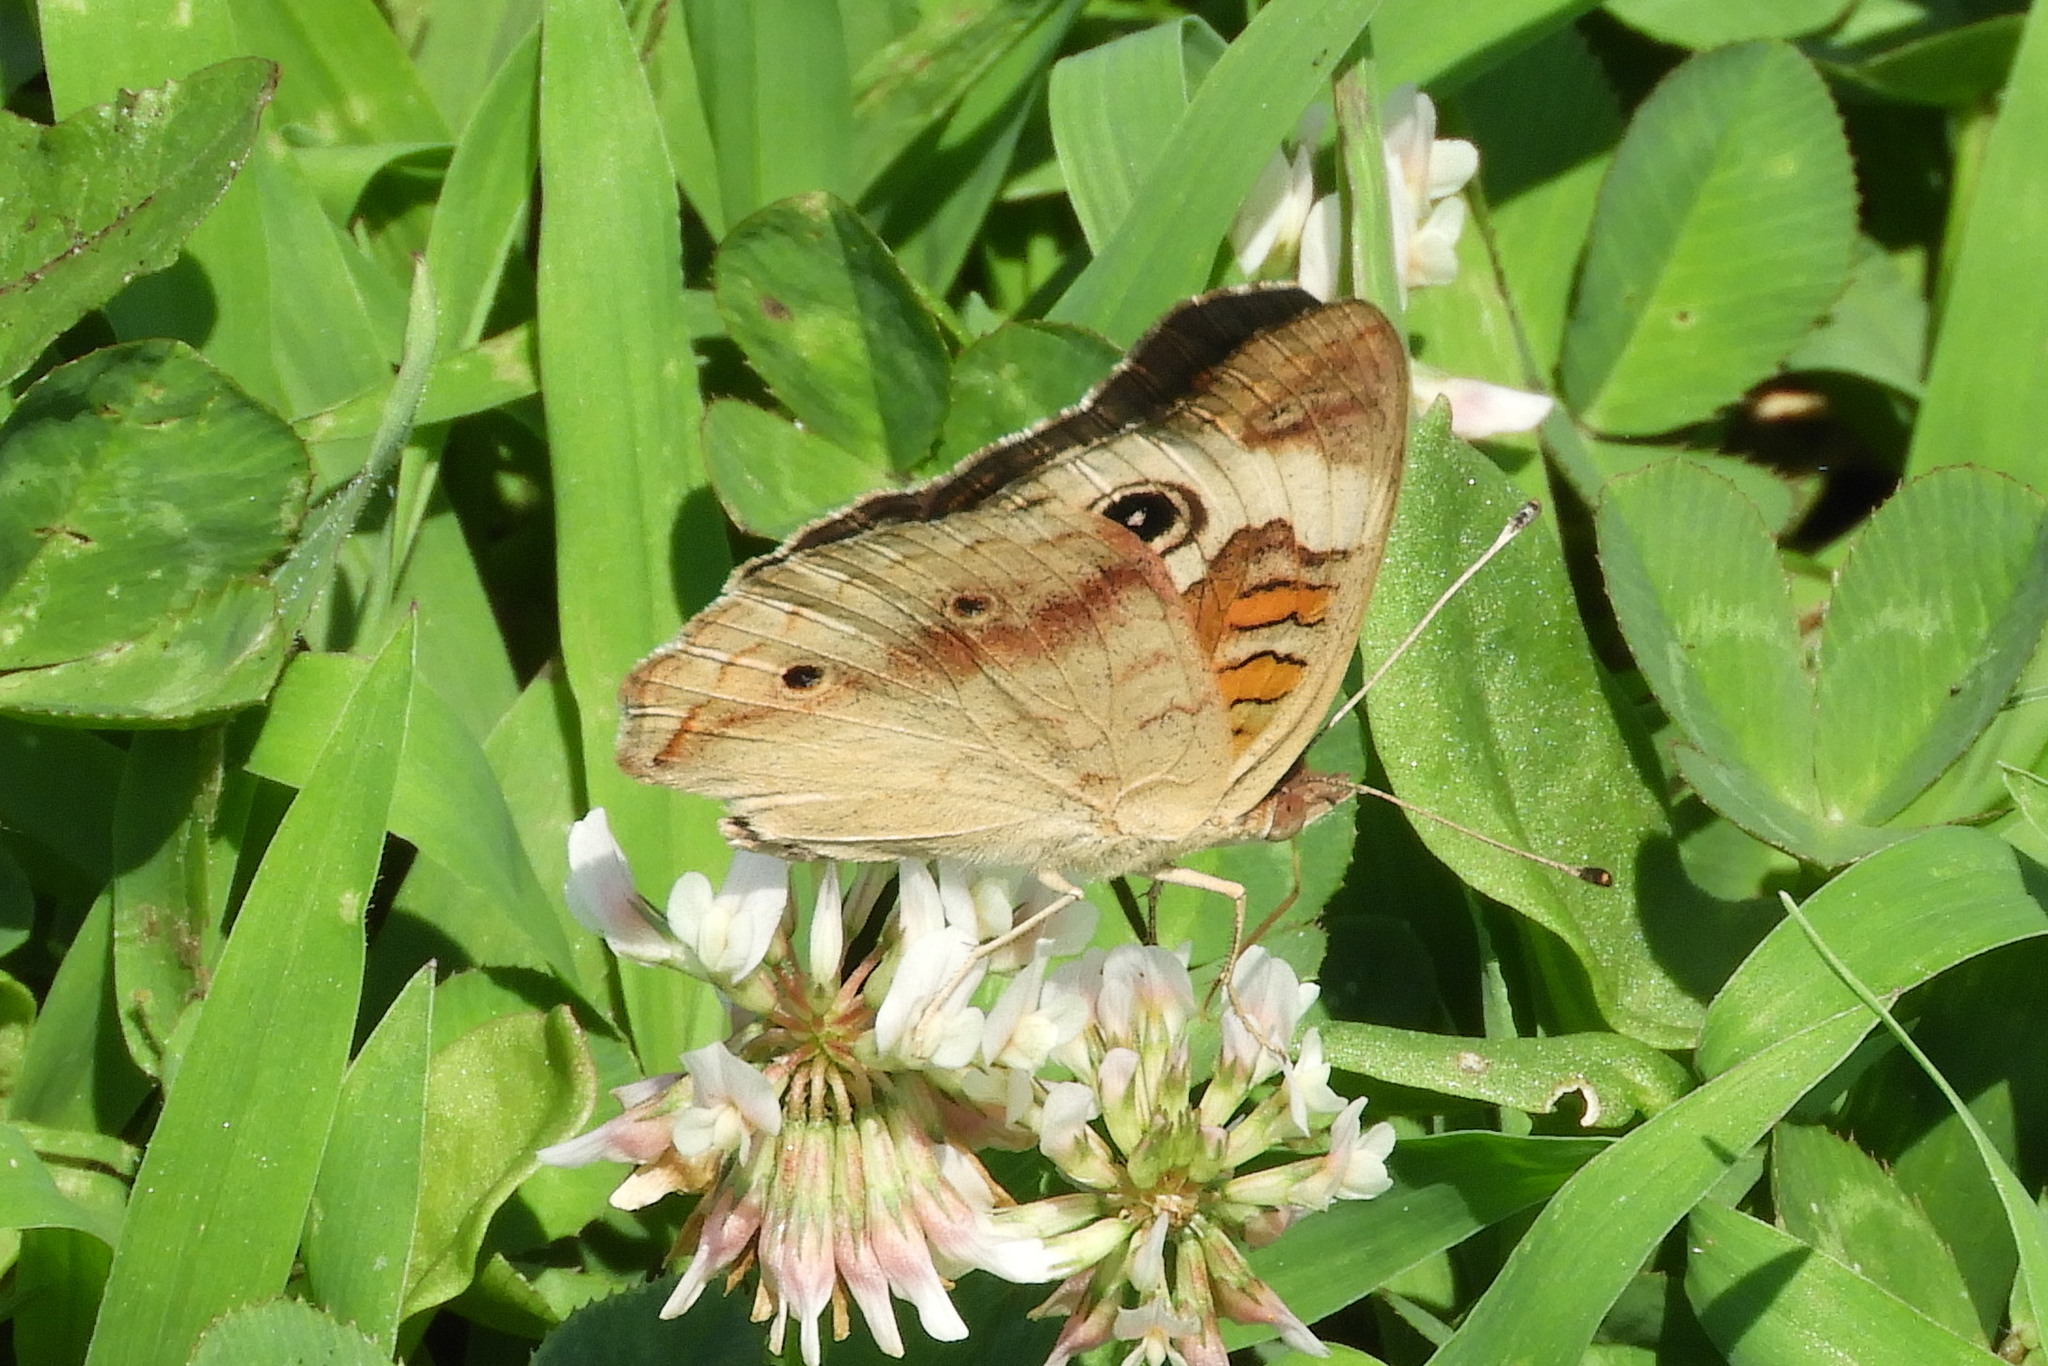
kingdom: Animalia
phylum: Arthropoda
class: Insecta
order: Lepidoptera
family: Nymphalidae
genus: Junonia
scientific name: Junonia coenia
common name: Common buckeye
